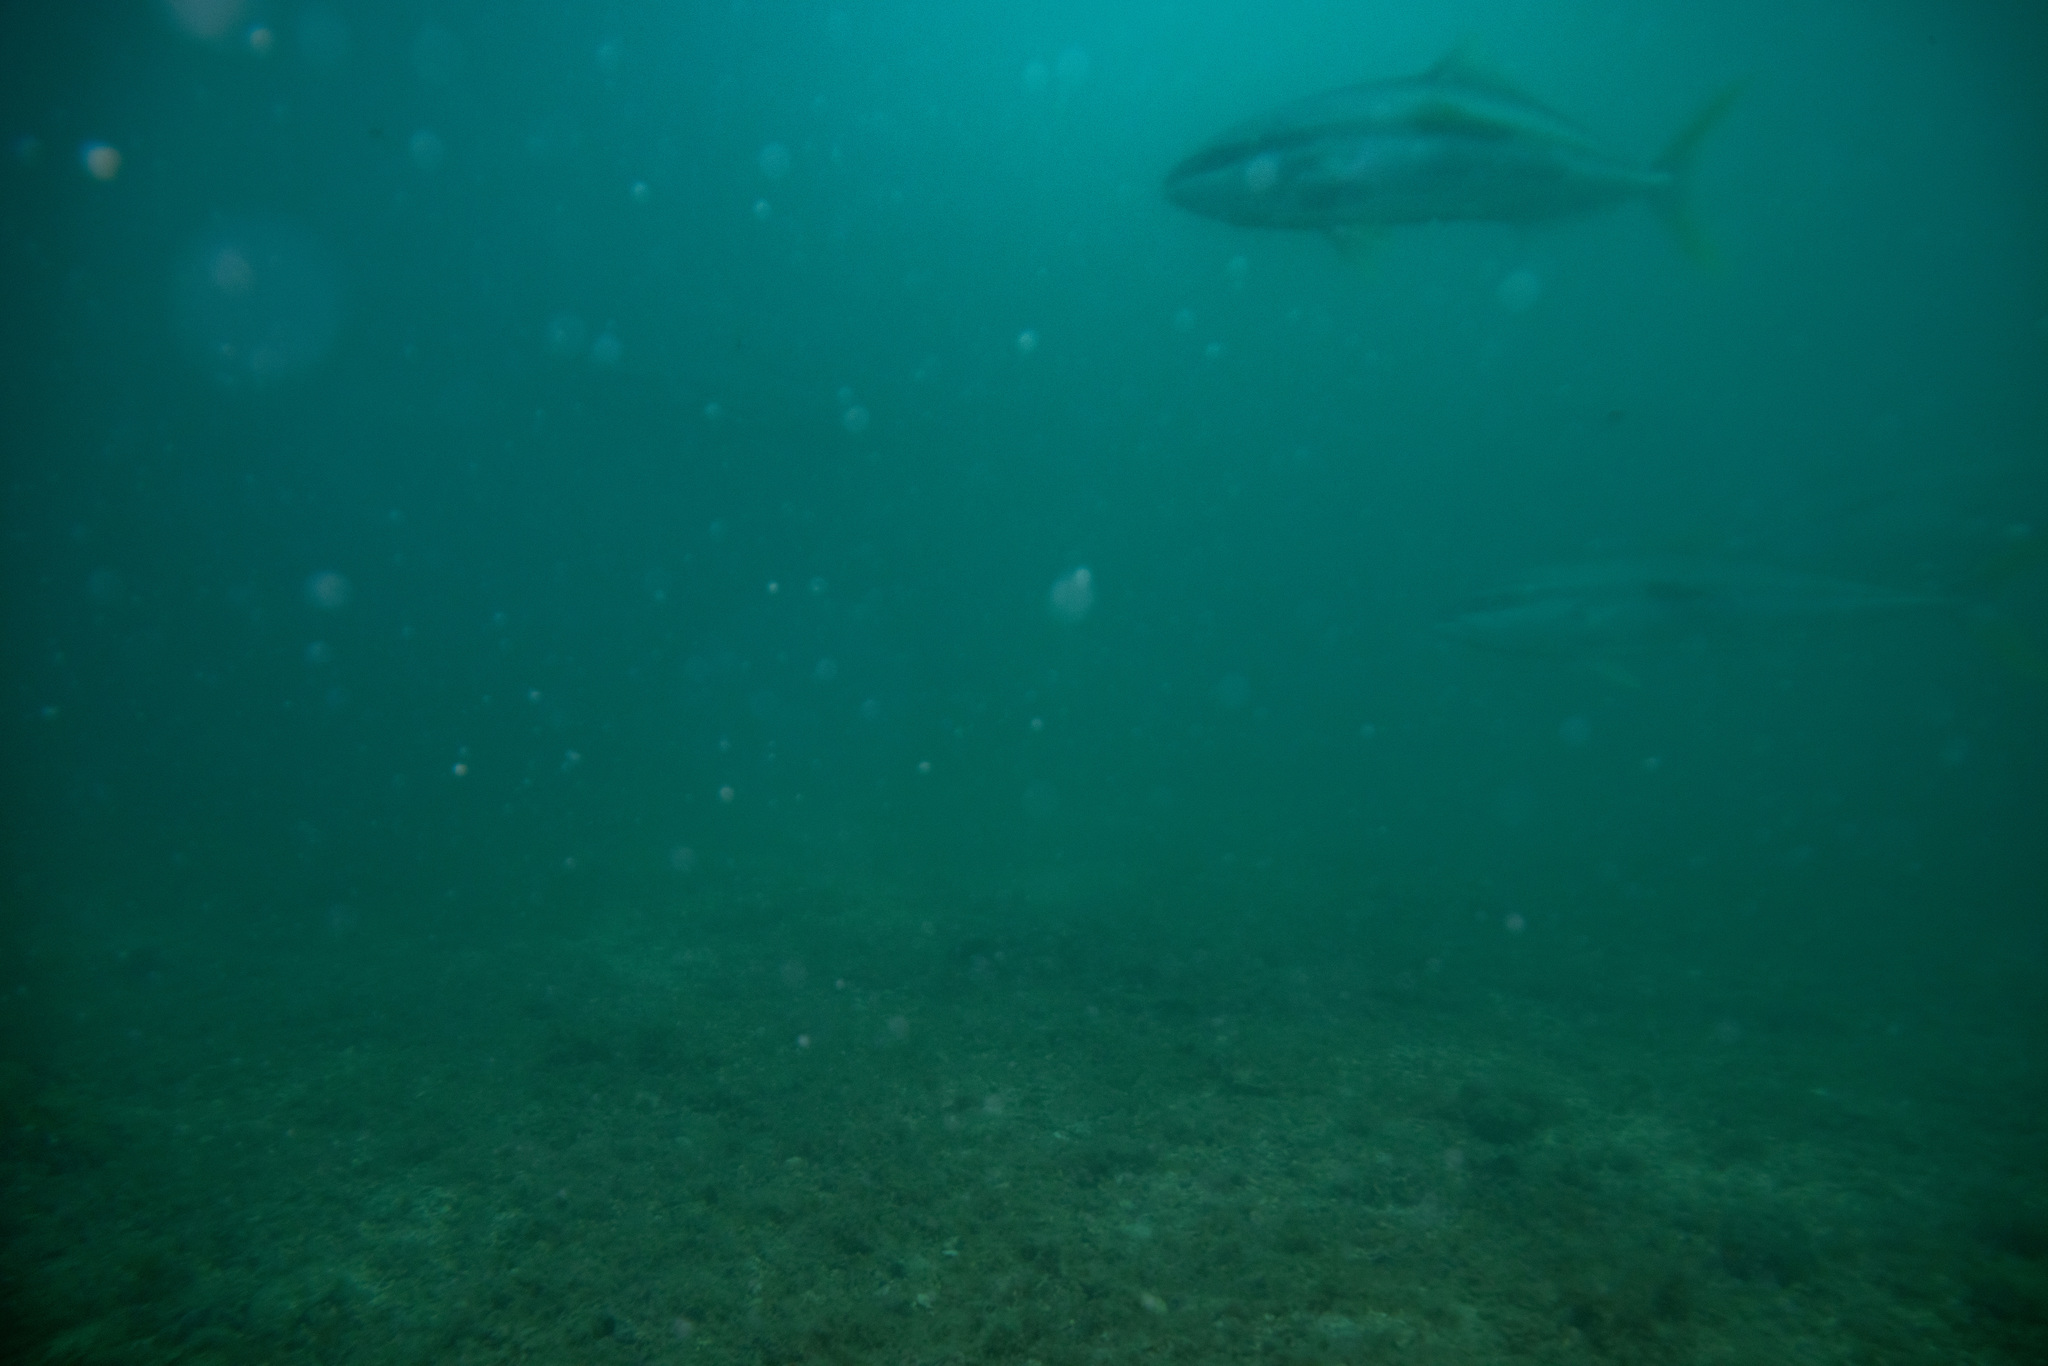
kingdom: Animalia
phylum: Chordata
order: Perciformes
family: Carangidae
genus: Seriola
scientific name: Seriola lalandi
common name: Yellowtail kingfish
